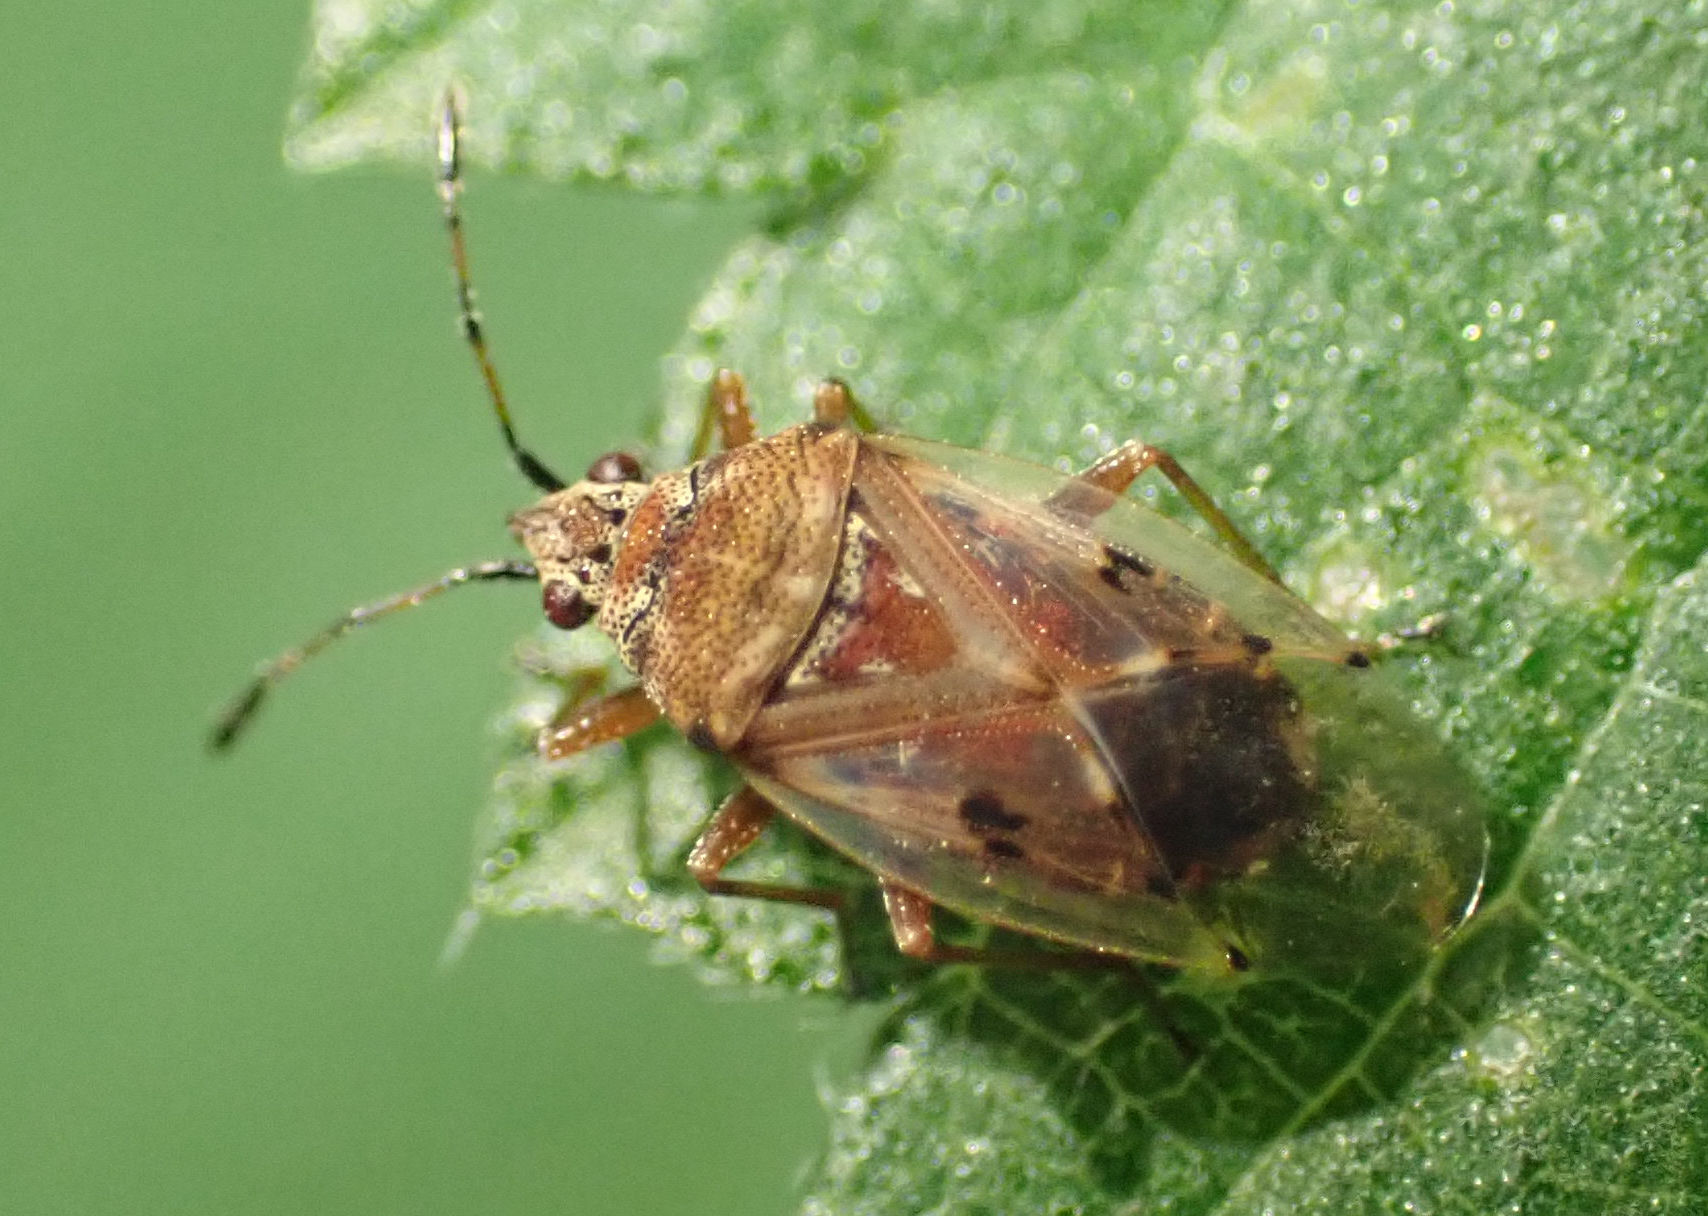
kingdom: Animalia
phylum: Arthropoda
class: Insecta
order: Hemiptera
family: Lygaeidae
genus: Kleidocerys
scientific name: Kleidocerys resedae
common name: Birch catkin bug
